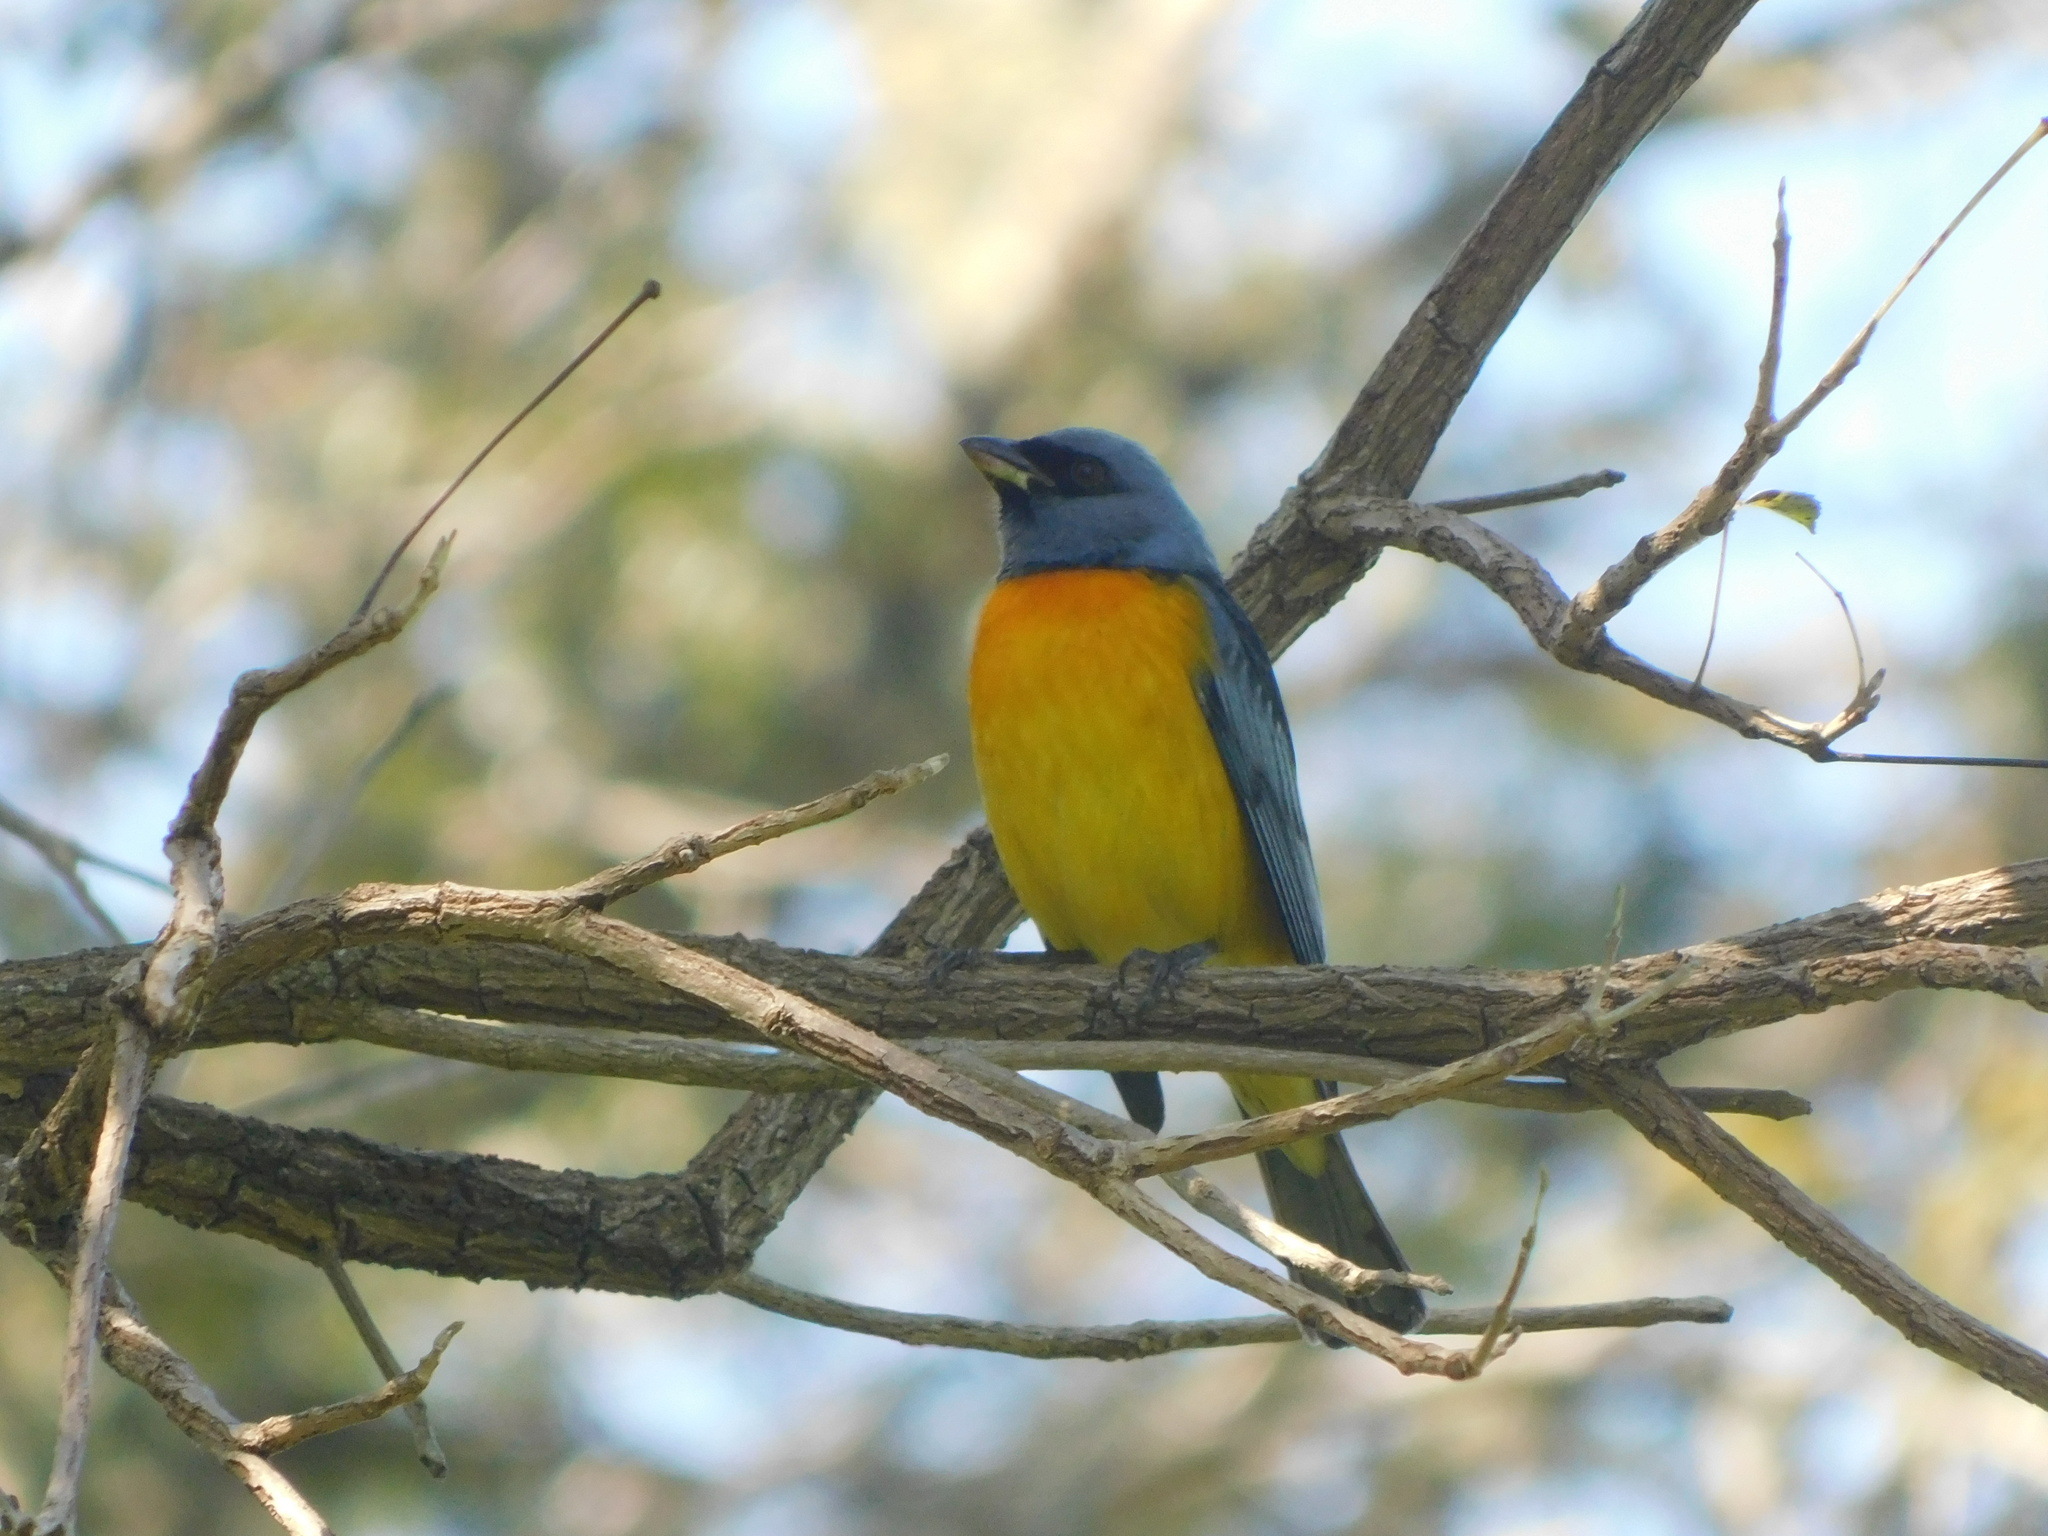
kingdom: Animalia
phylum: Chordata
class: Aves
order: Passeriformes
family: Thraupidae
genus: Rauenia
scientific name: Rauenia bonariensis
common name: Blue-and-yellow tanager
